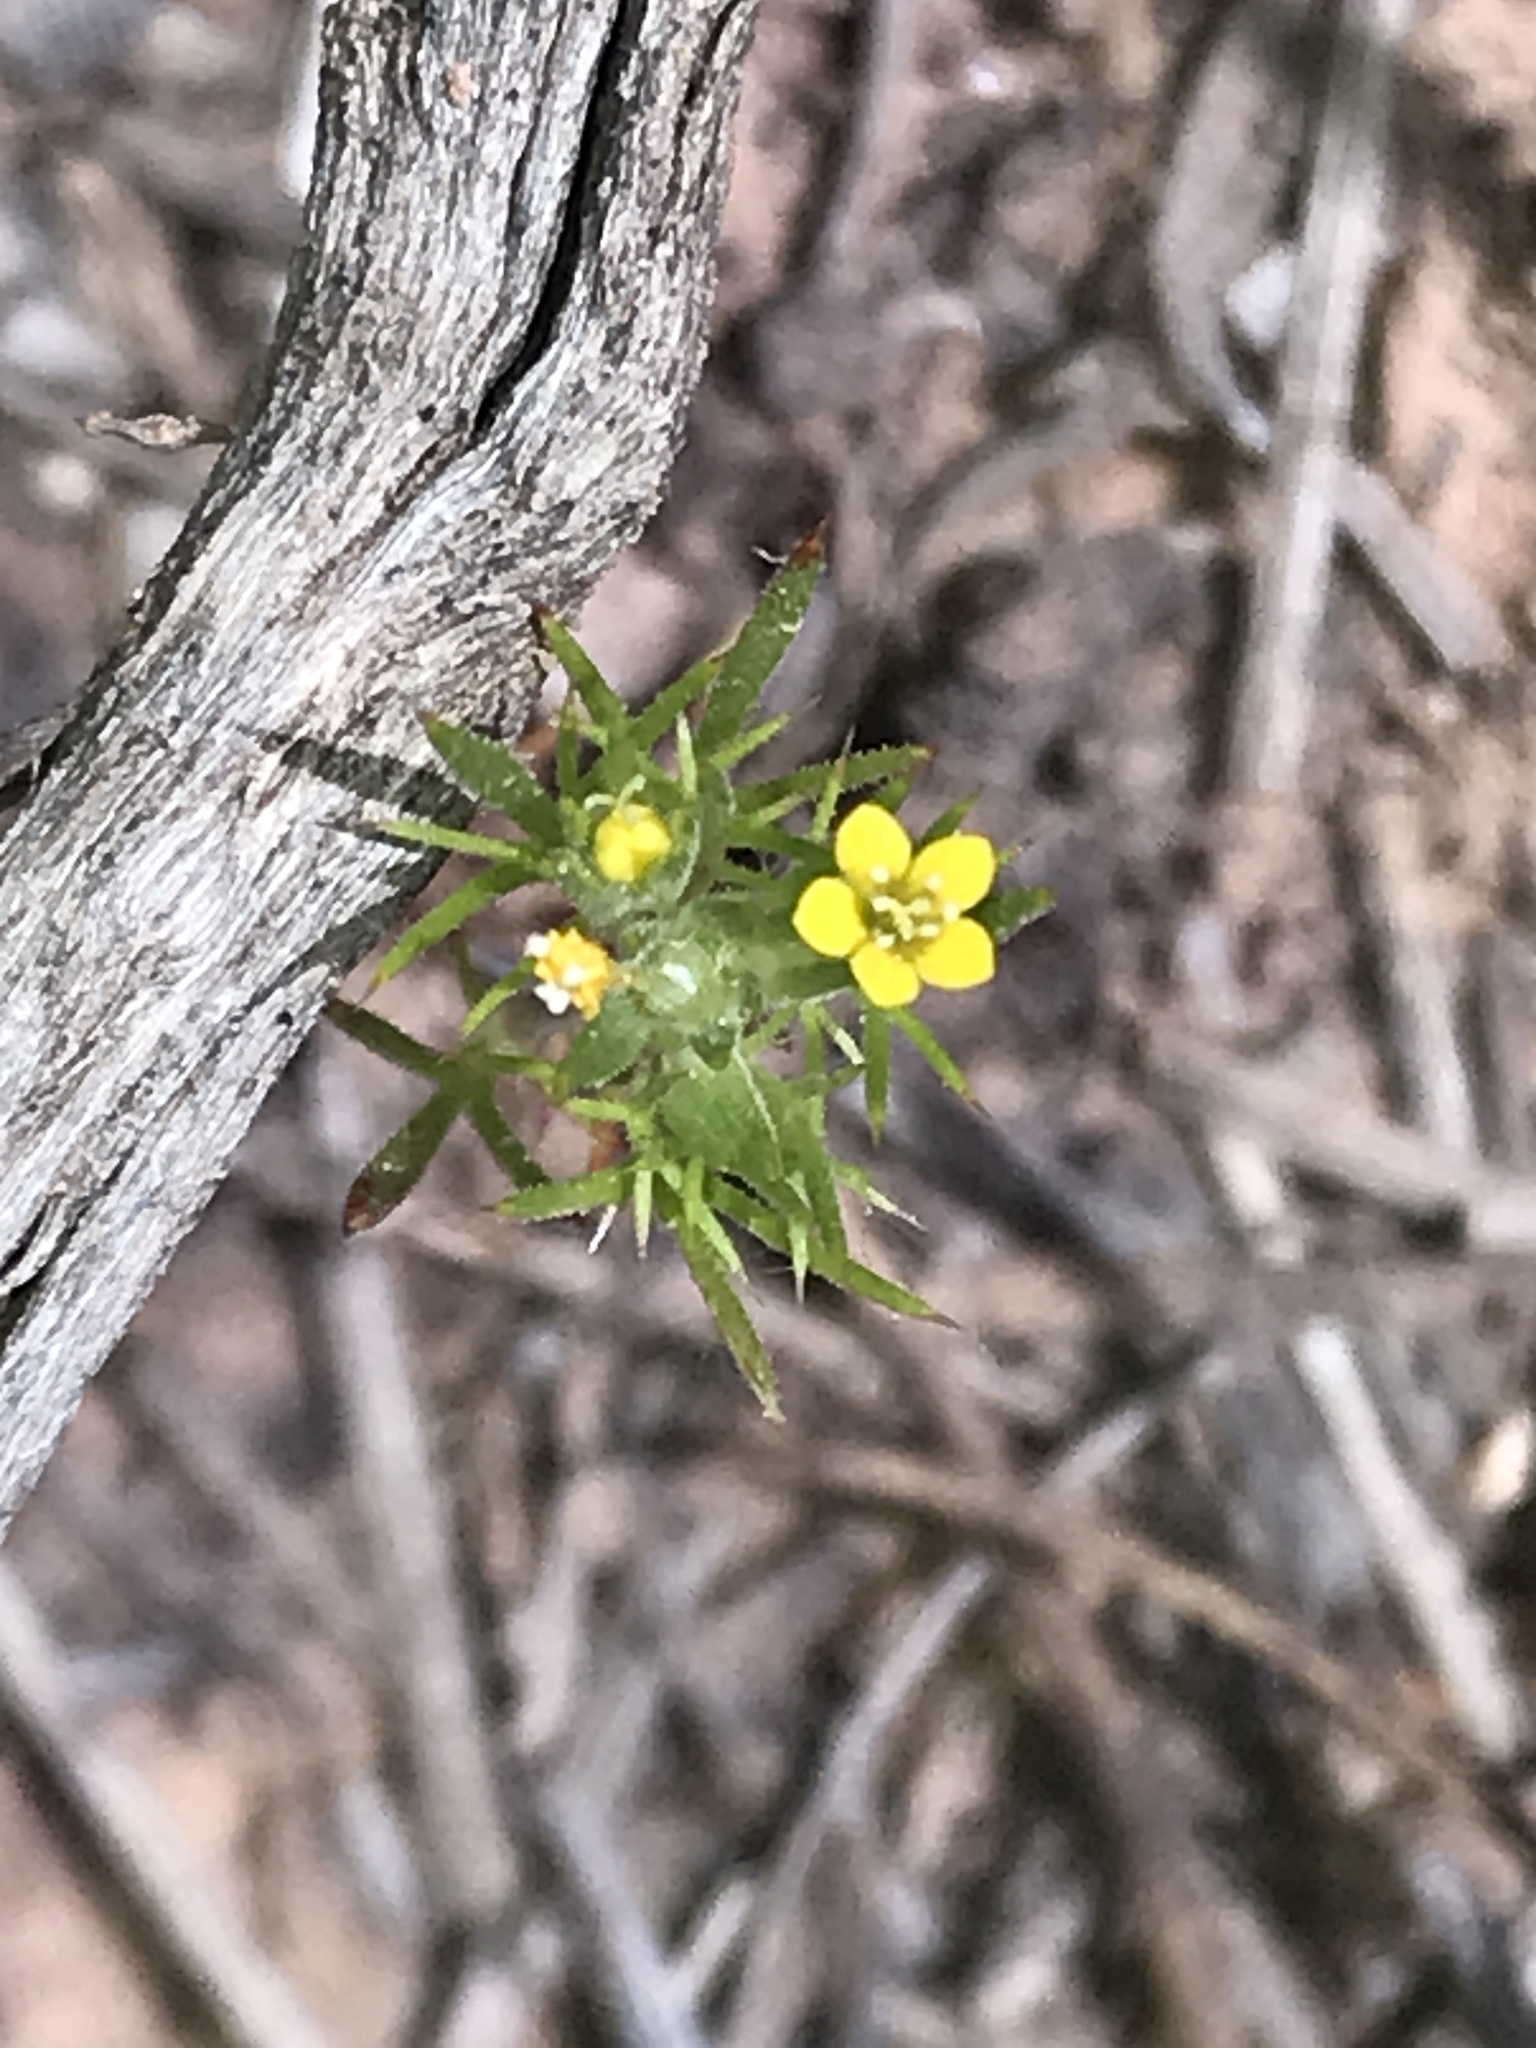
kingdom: Plantae
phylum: Tracheophyta
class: Magnoliopsida
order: Ericales
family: Polemoniaceae
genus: Navarretia
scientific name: Navarretia breweri
